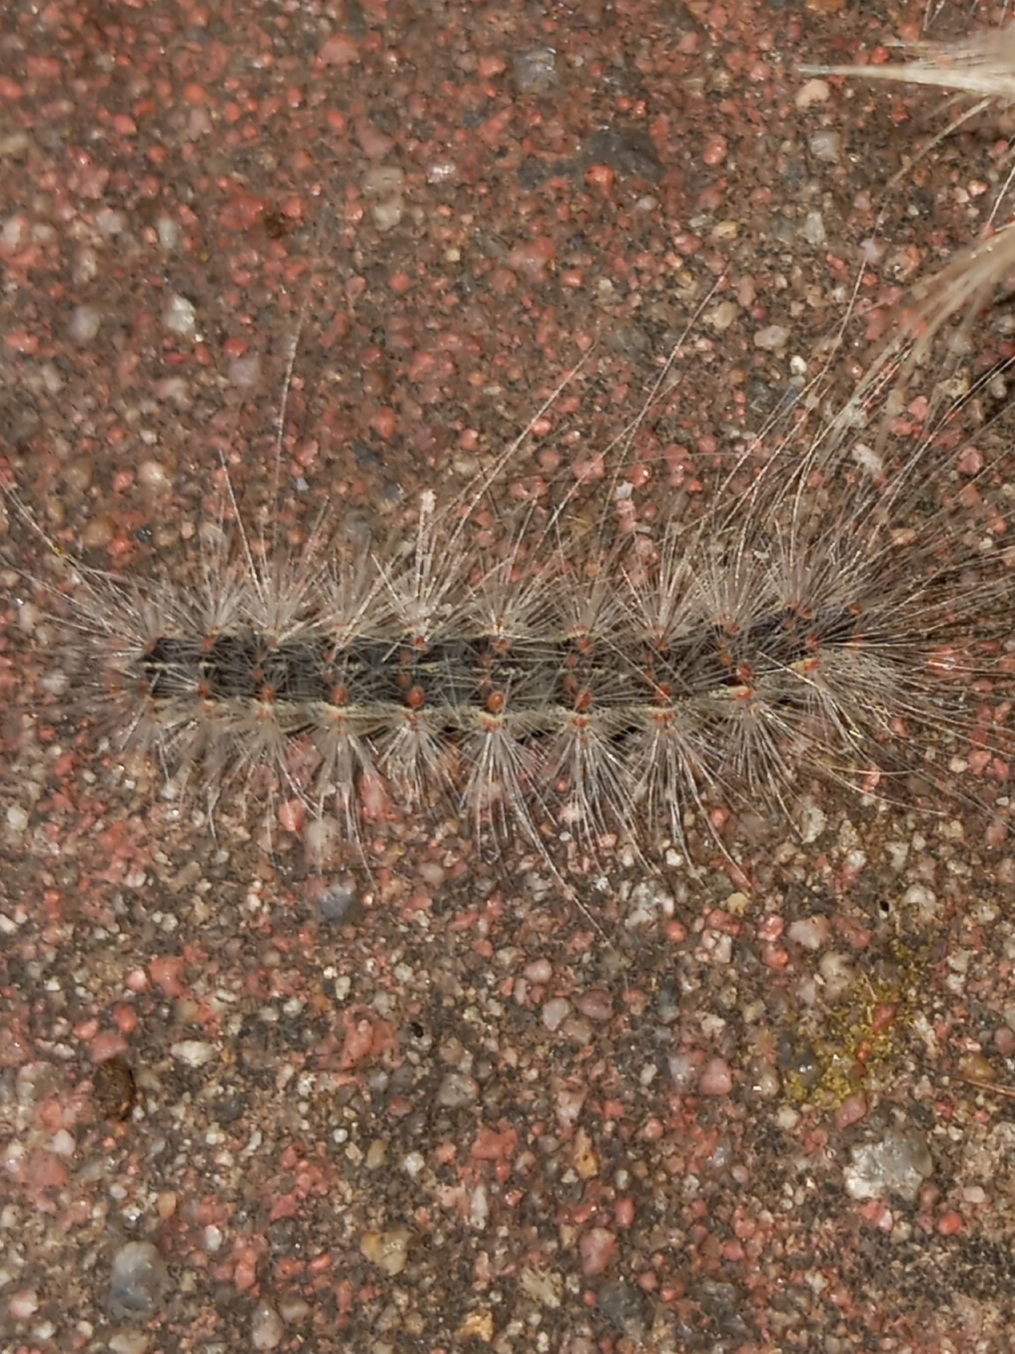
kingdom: Animalia
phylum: Arthropoda
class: Insecta
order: Lepidoptera
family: Erebidae
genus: Hyphantria
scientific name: Hyphantria cunea
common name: American white moth
